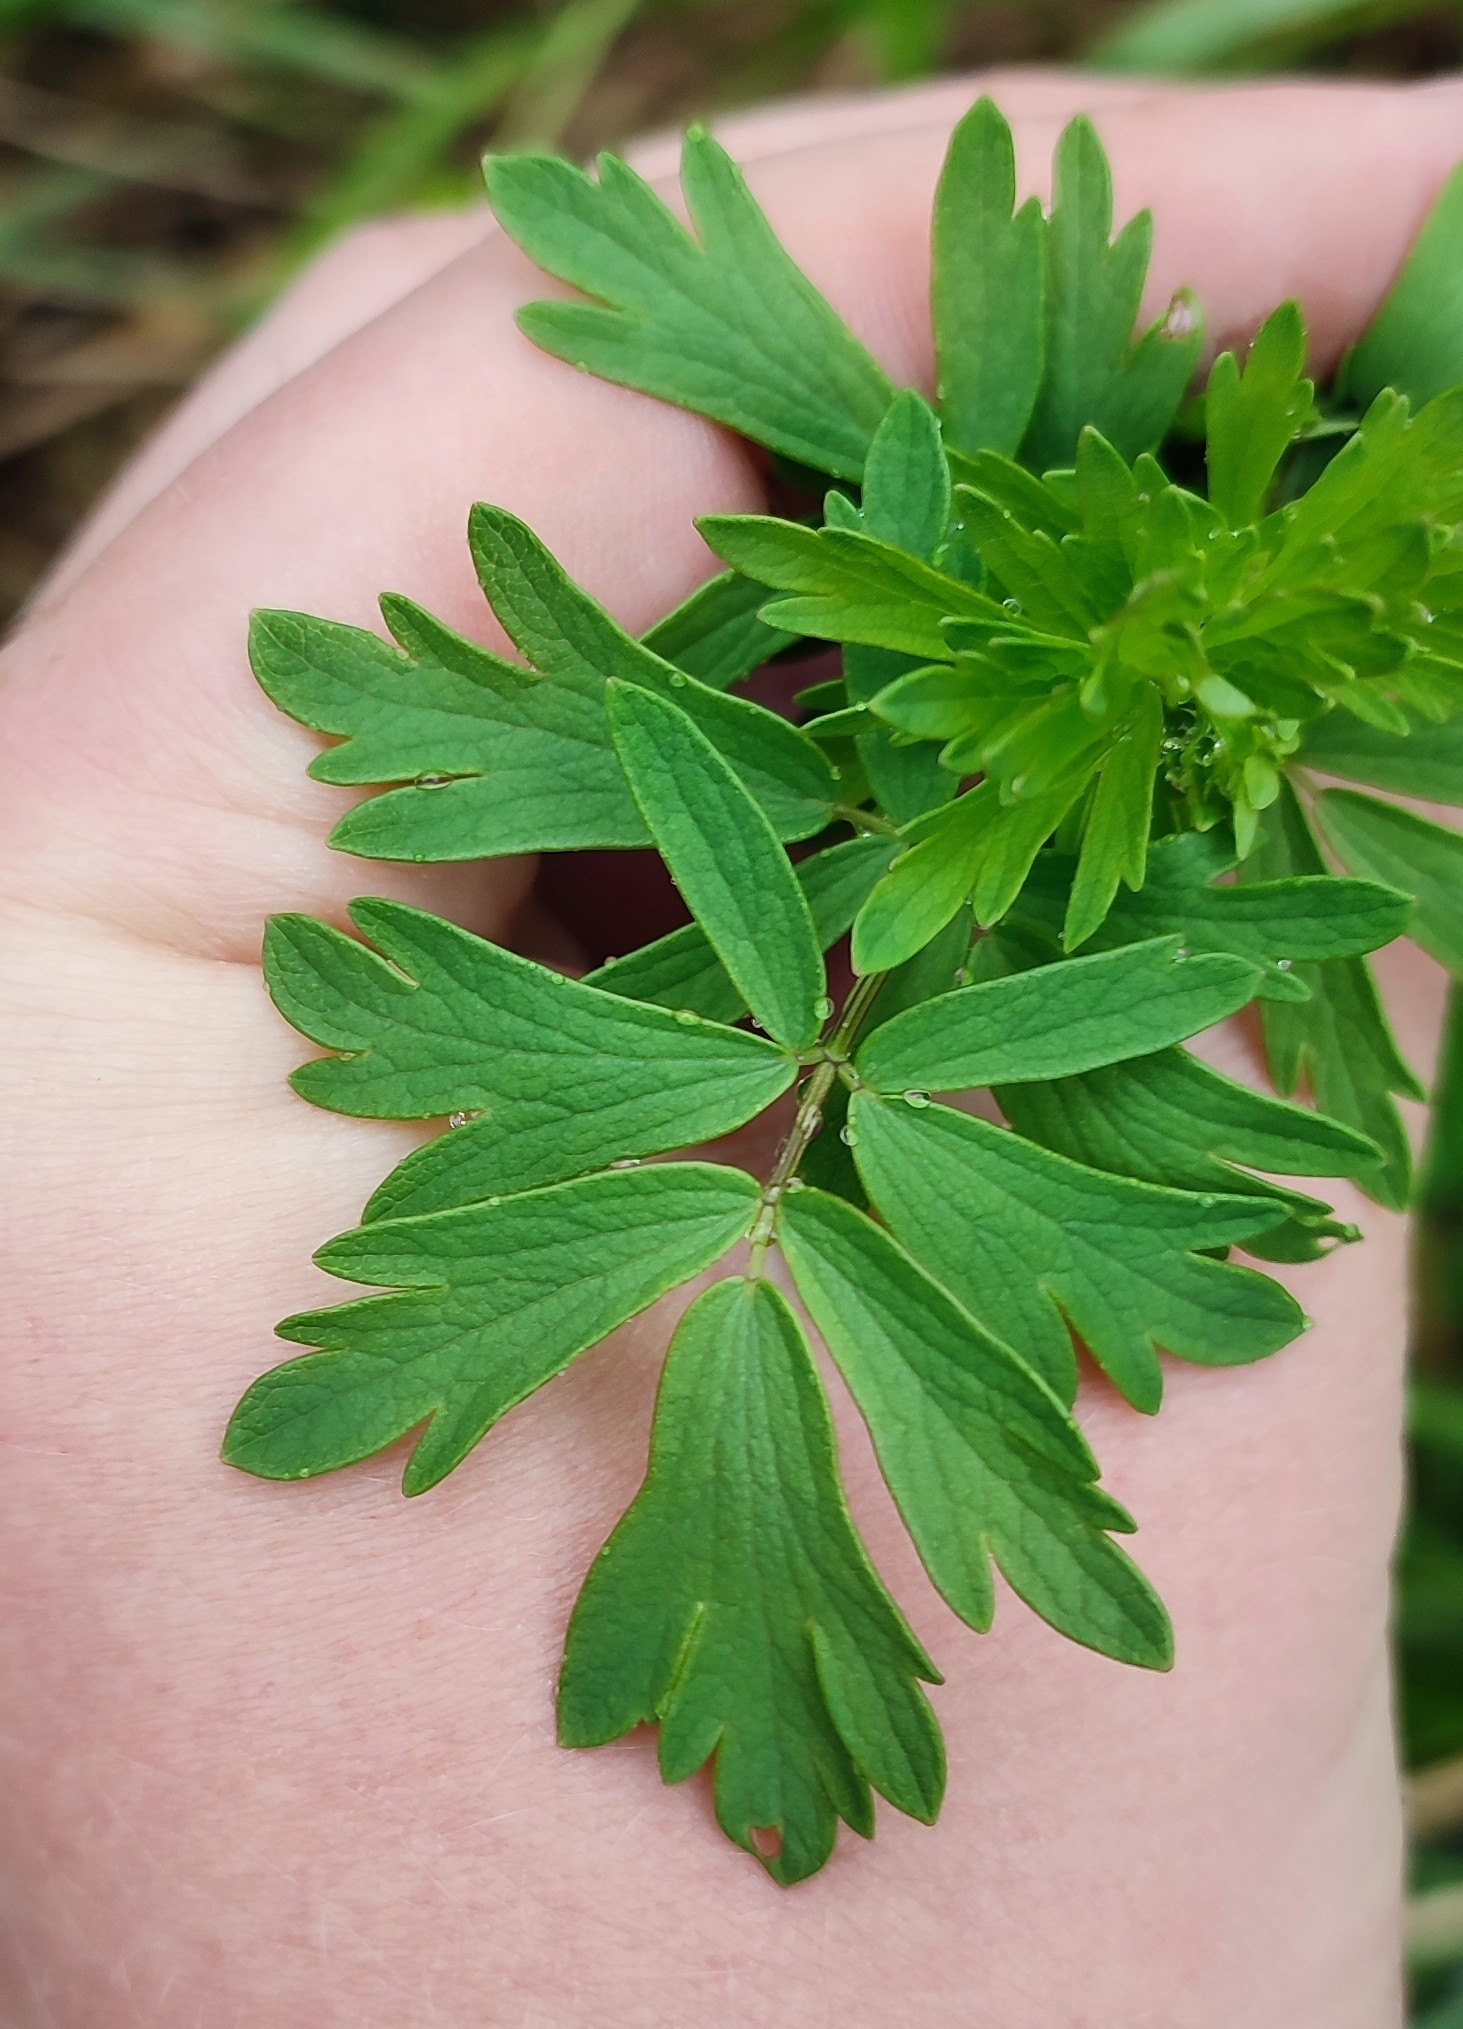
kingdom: Plantae
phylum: Tracheophyta
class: Magnoliopsida
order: Ranunculales
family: Ranunculaceae
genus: Thalictrum
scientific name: Thalictrum simplex
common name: Small meadow-rue
